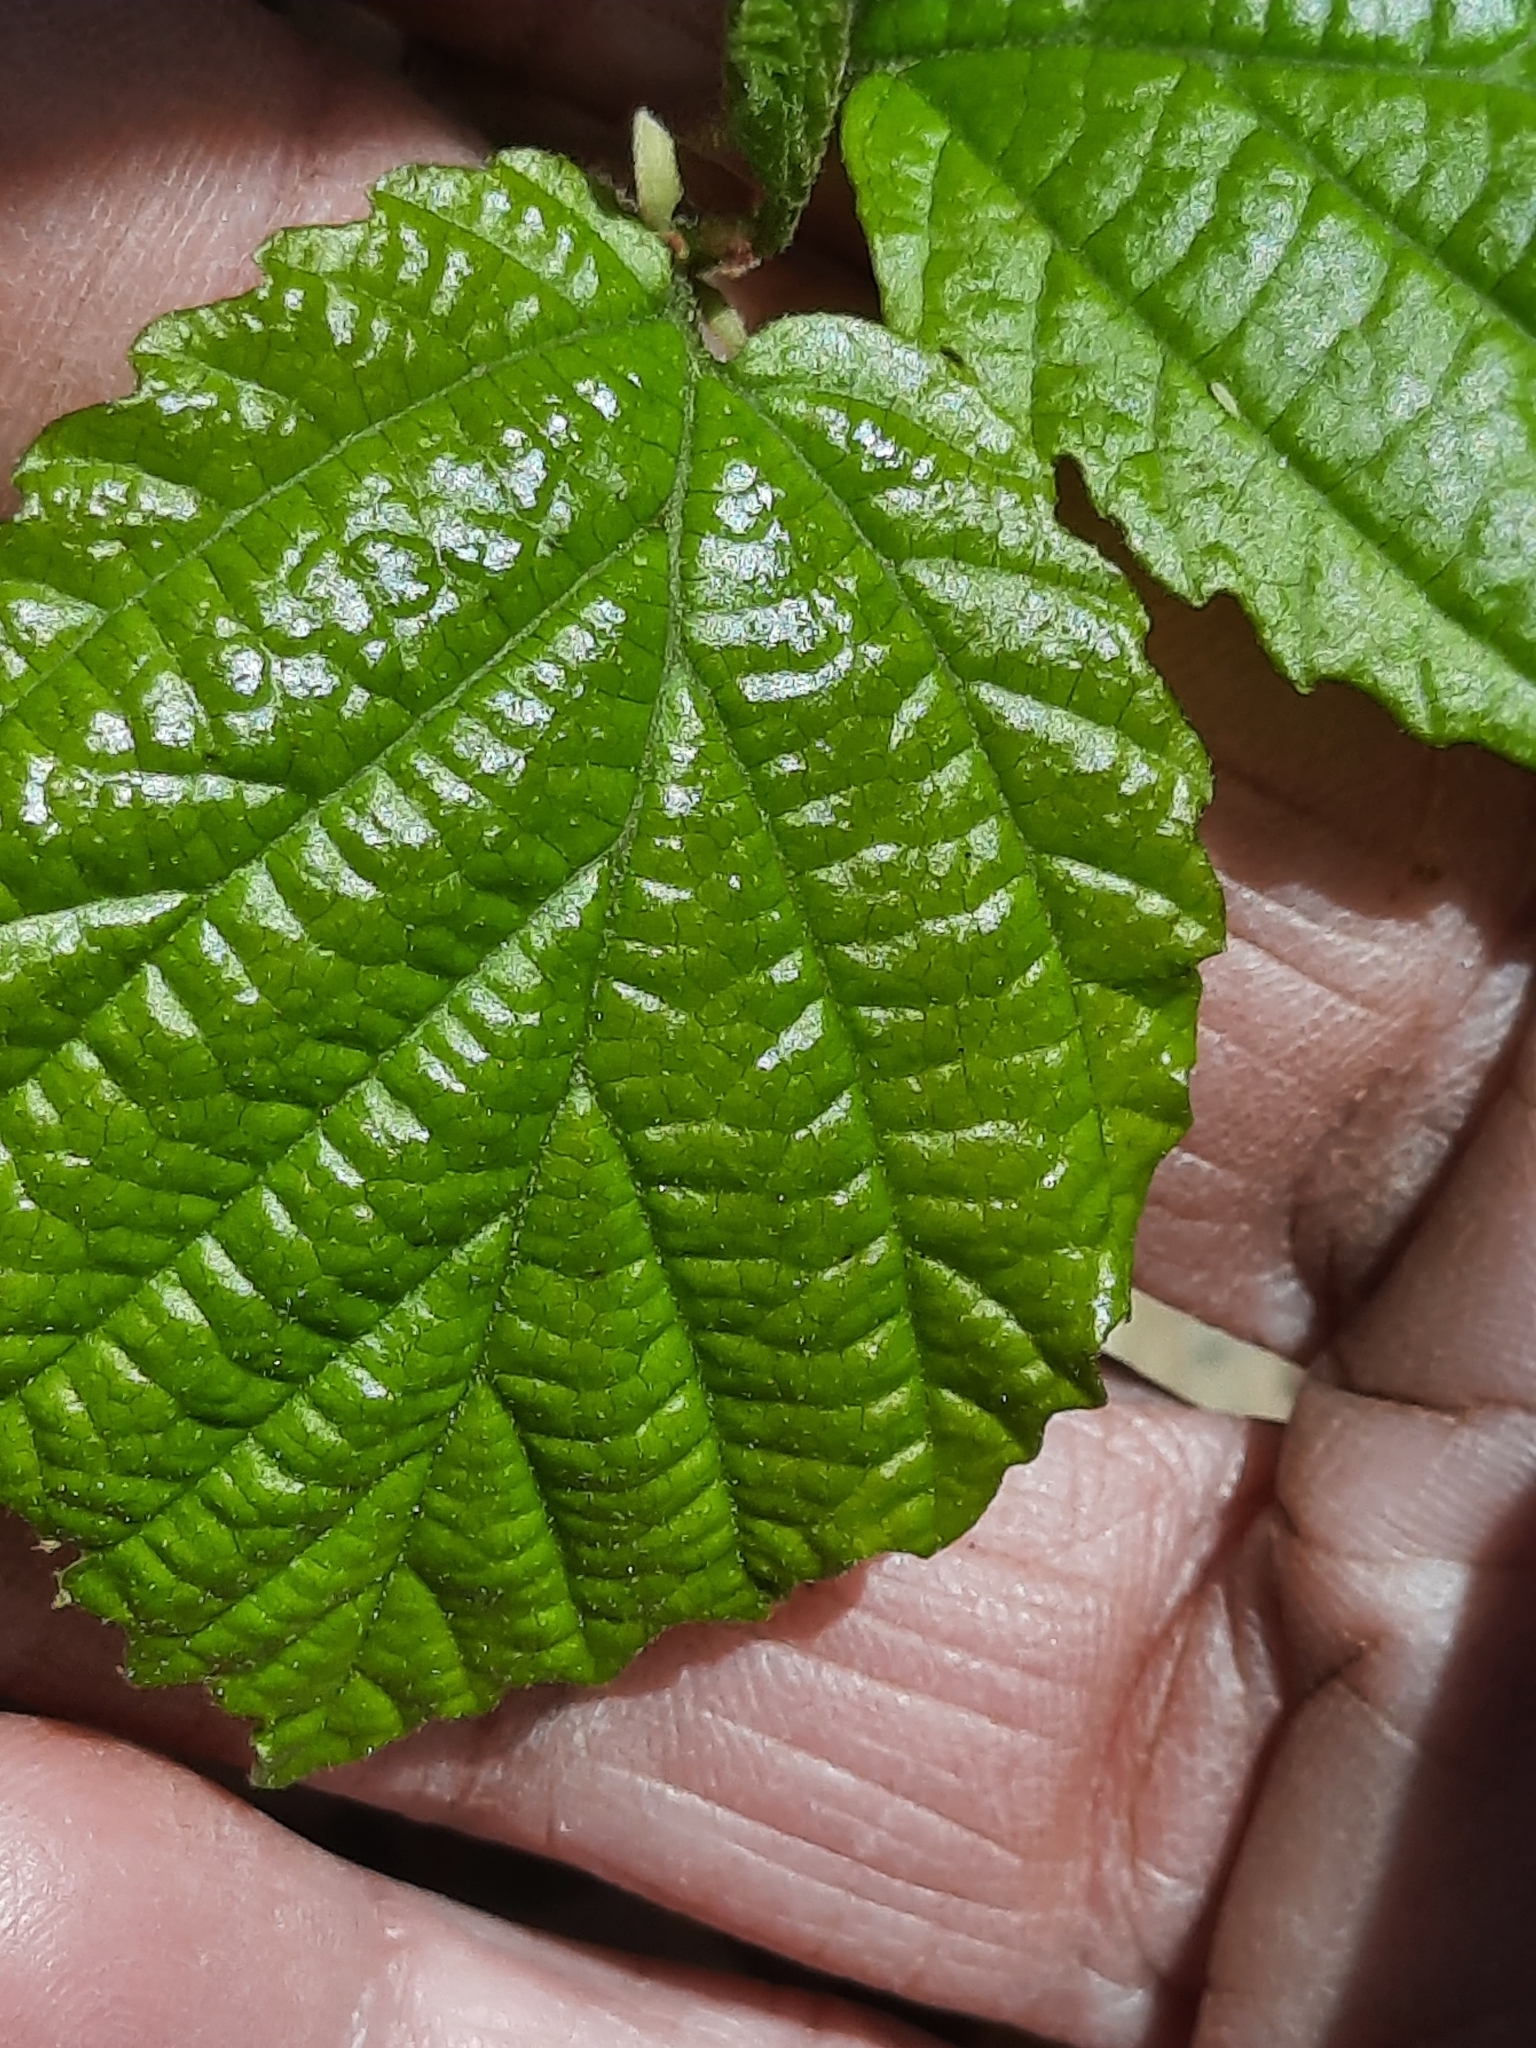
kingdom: Plantae
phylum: Tracheophyta
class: Magnoliopsida
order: Saxifragales
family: Hamamelidaceae
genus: Hamamelis
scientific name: Hamamelis virginiana
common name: Witch-hazel
